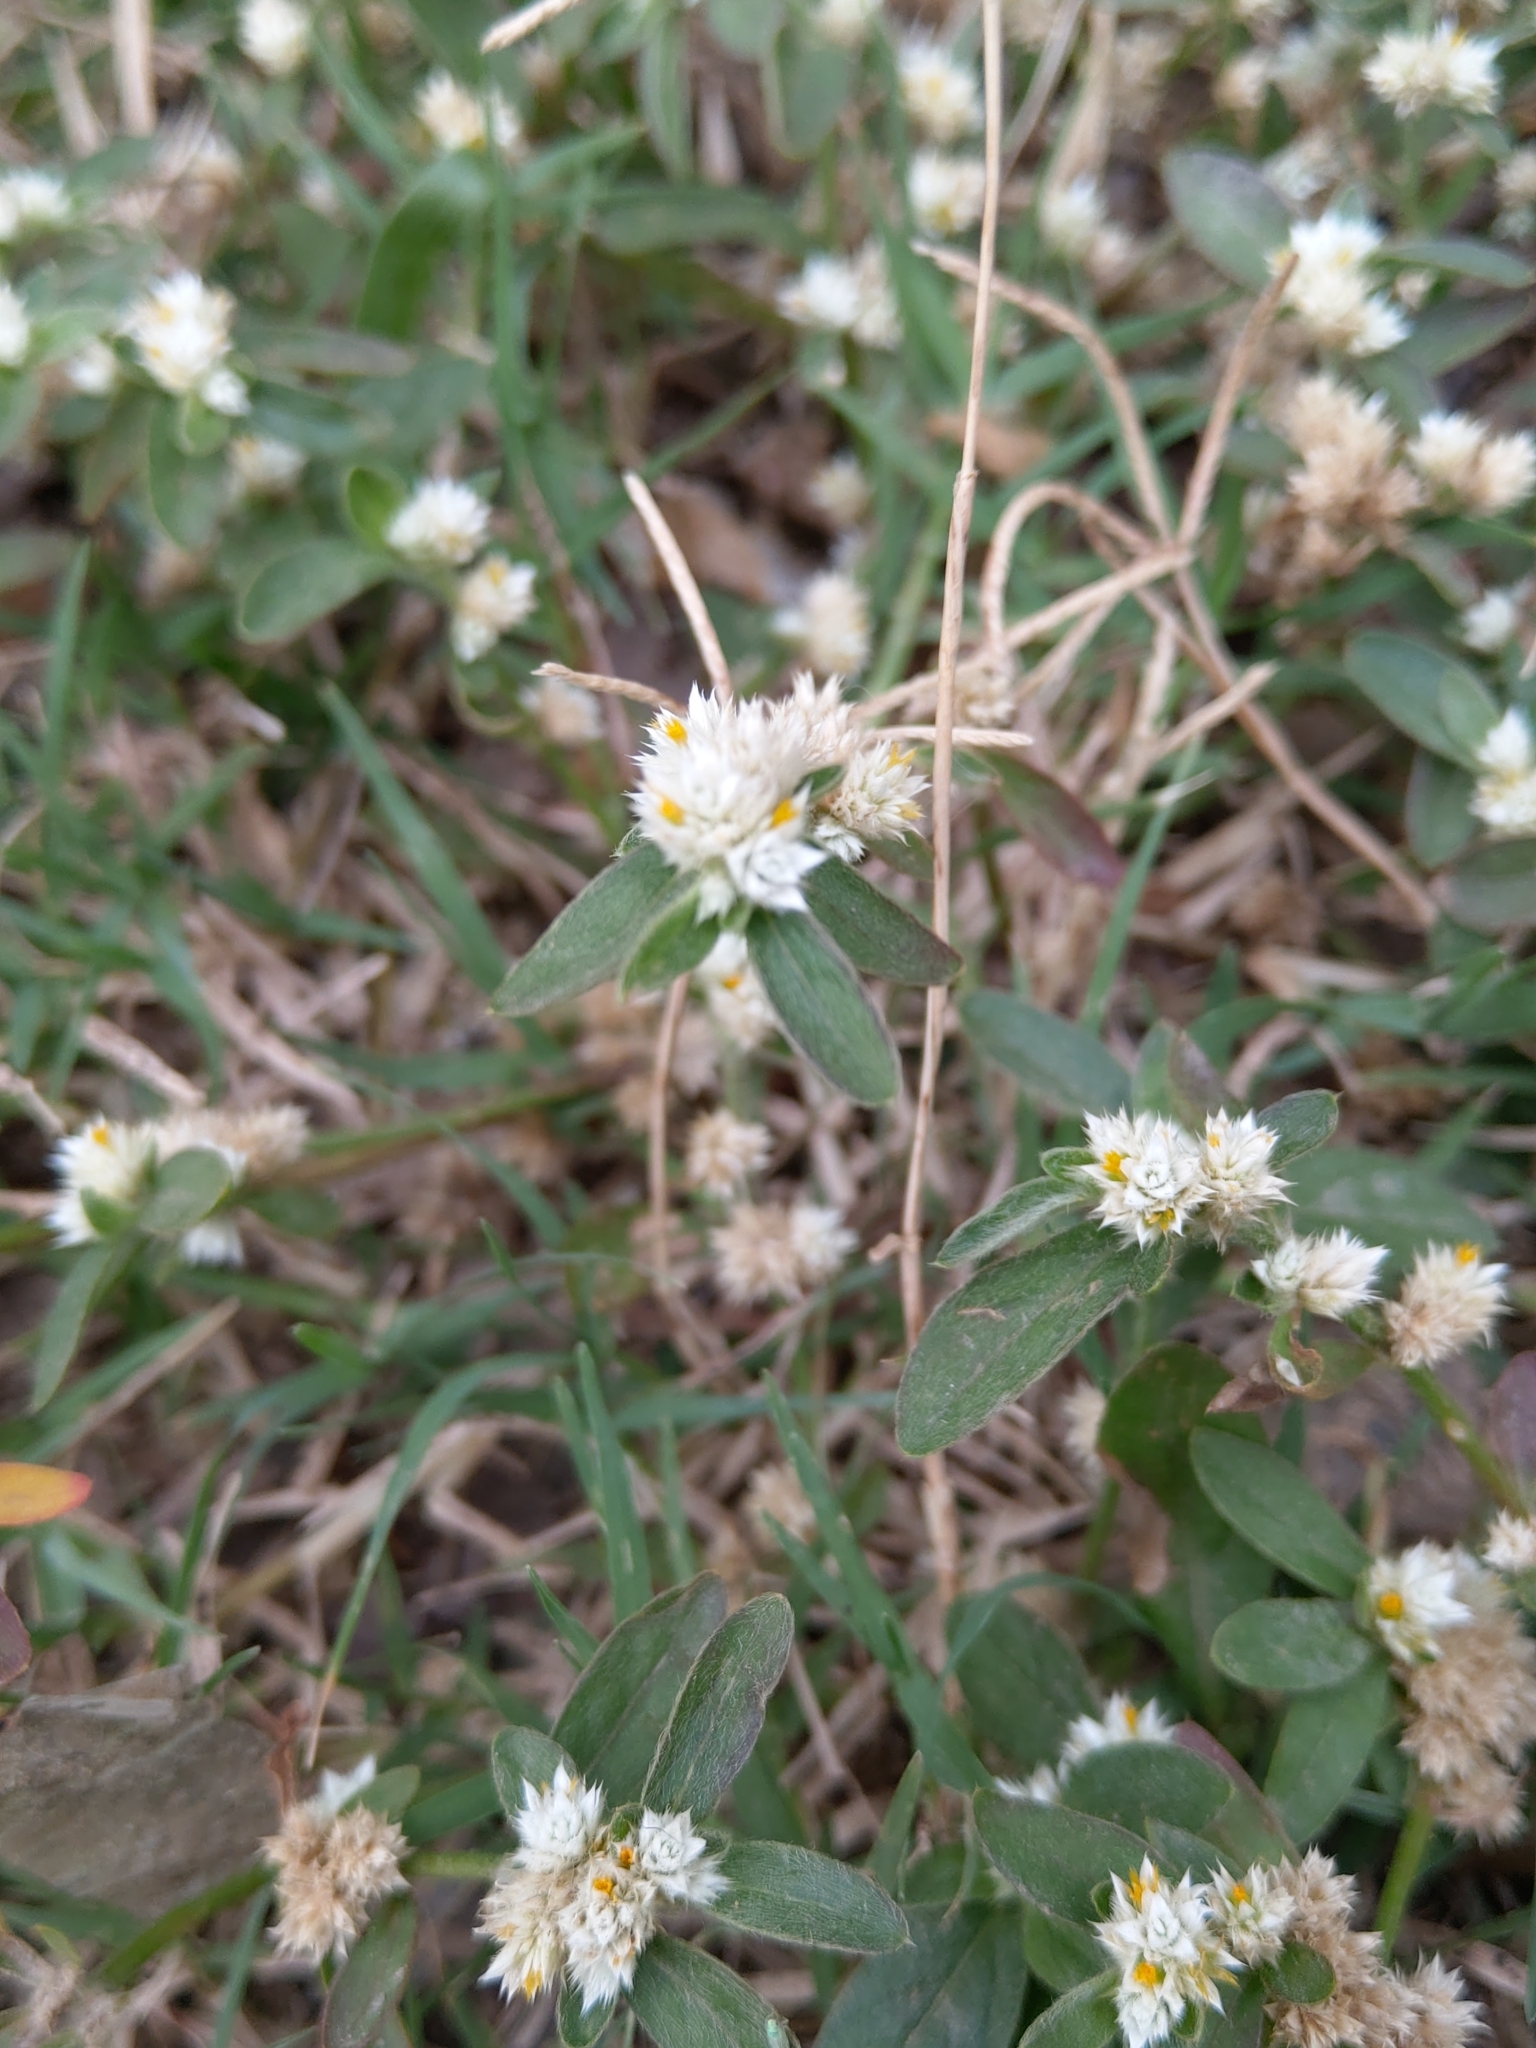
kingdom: Plantae
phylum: Tracheophyta
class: Magnoliopsida
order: Caryophyllales
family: Amaranthaceae
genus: Alternanthera
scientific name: Alternanthera bettzickiana
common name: Calico-plant
